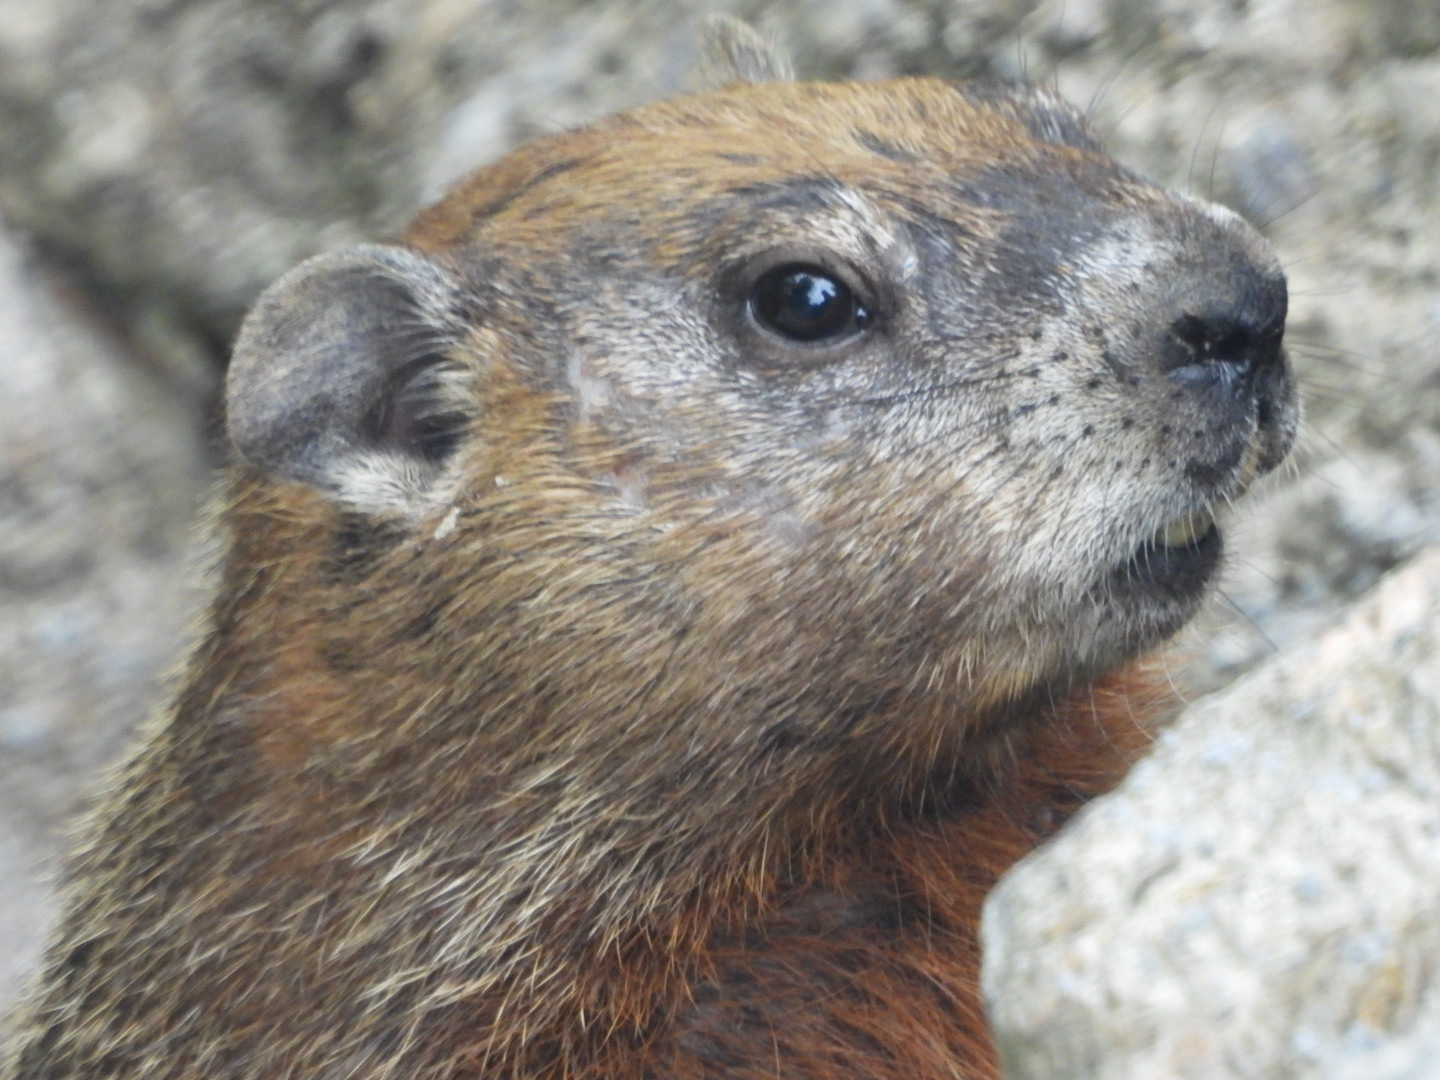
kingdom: Animalia
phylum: Chordata
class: Mammalia
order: Rodentia
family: Sciuridae
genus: Marmota
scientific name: Marmota monax
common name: Groundhog
